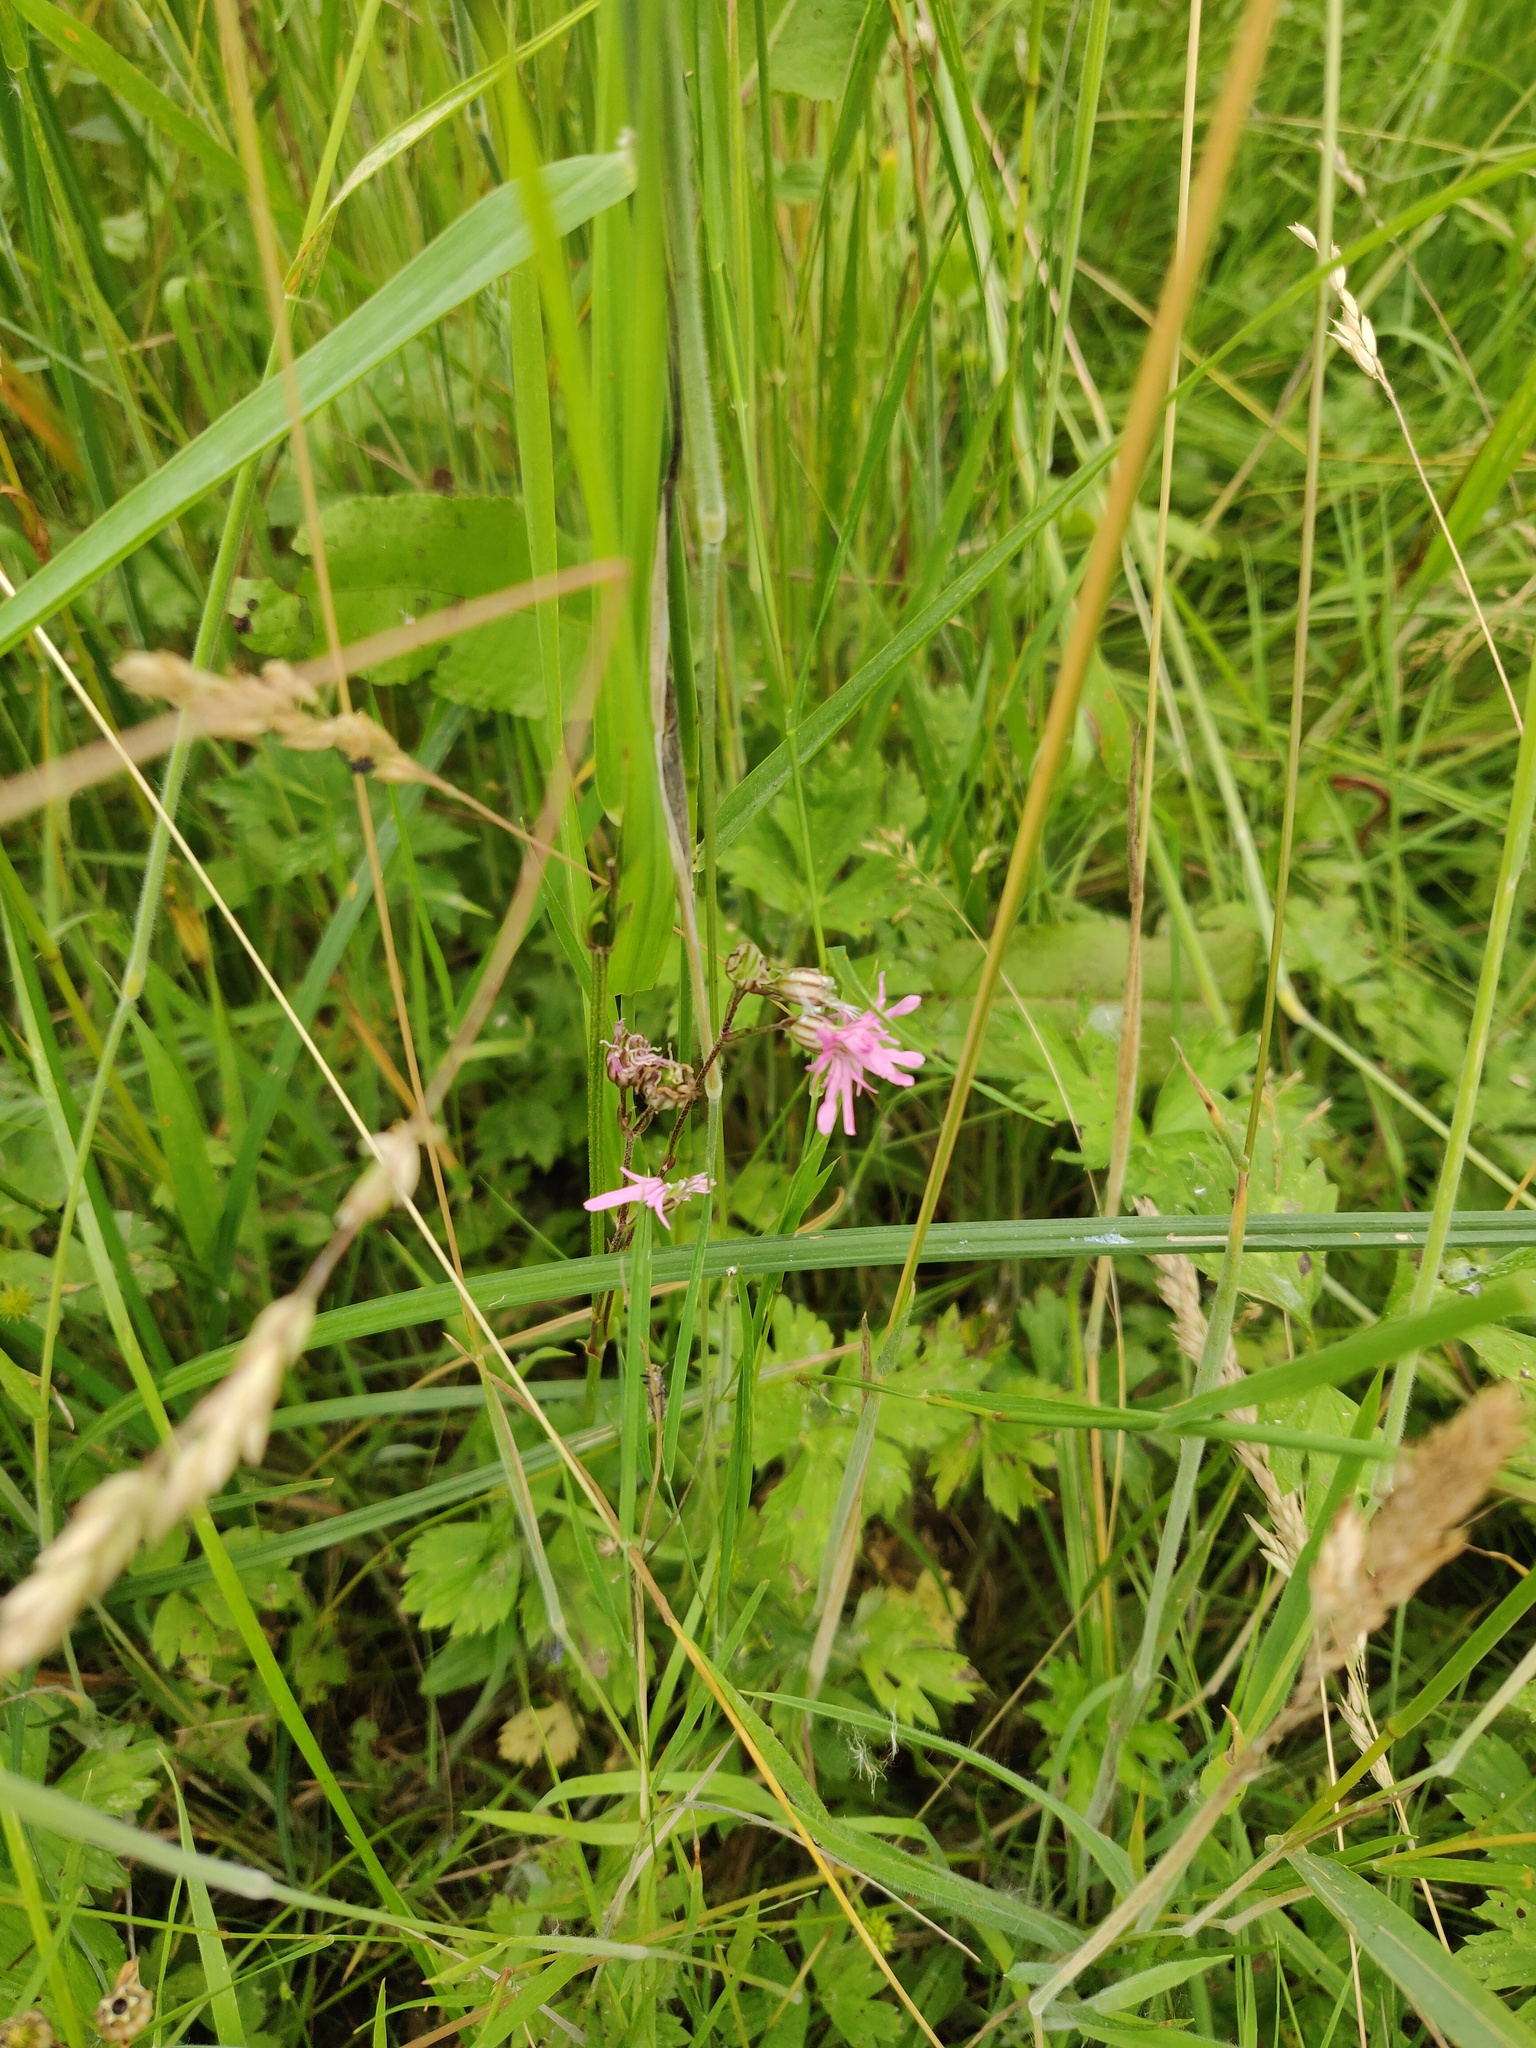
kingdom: Plantae
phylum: Tracheophyta
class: Magnoliopsida
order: Caryophyllales
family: Caryophyllaceae
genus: Silene
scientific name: Silene flos-cuculi
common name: Ragged-robin
